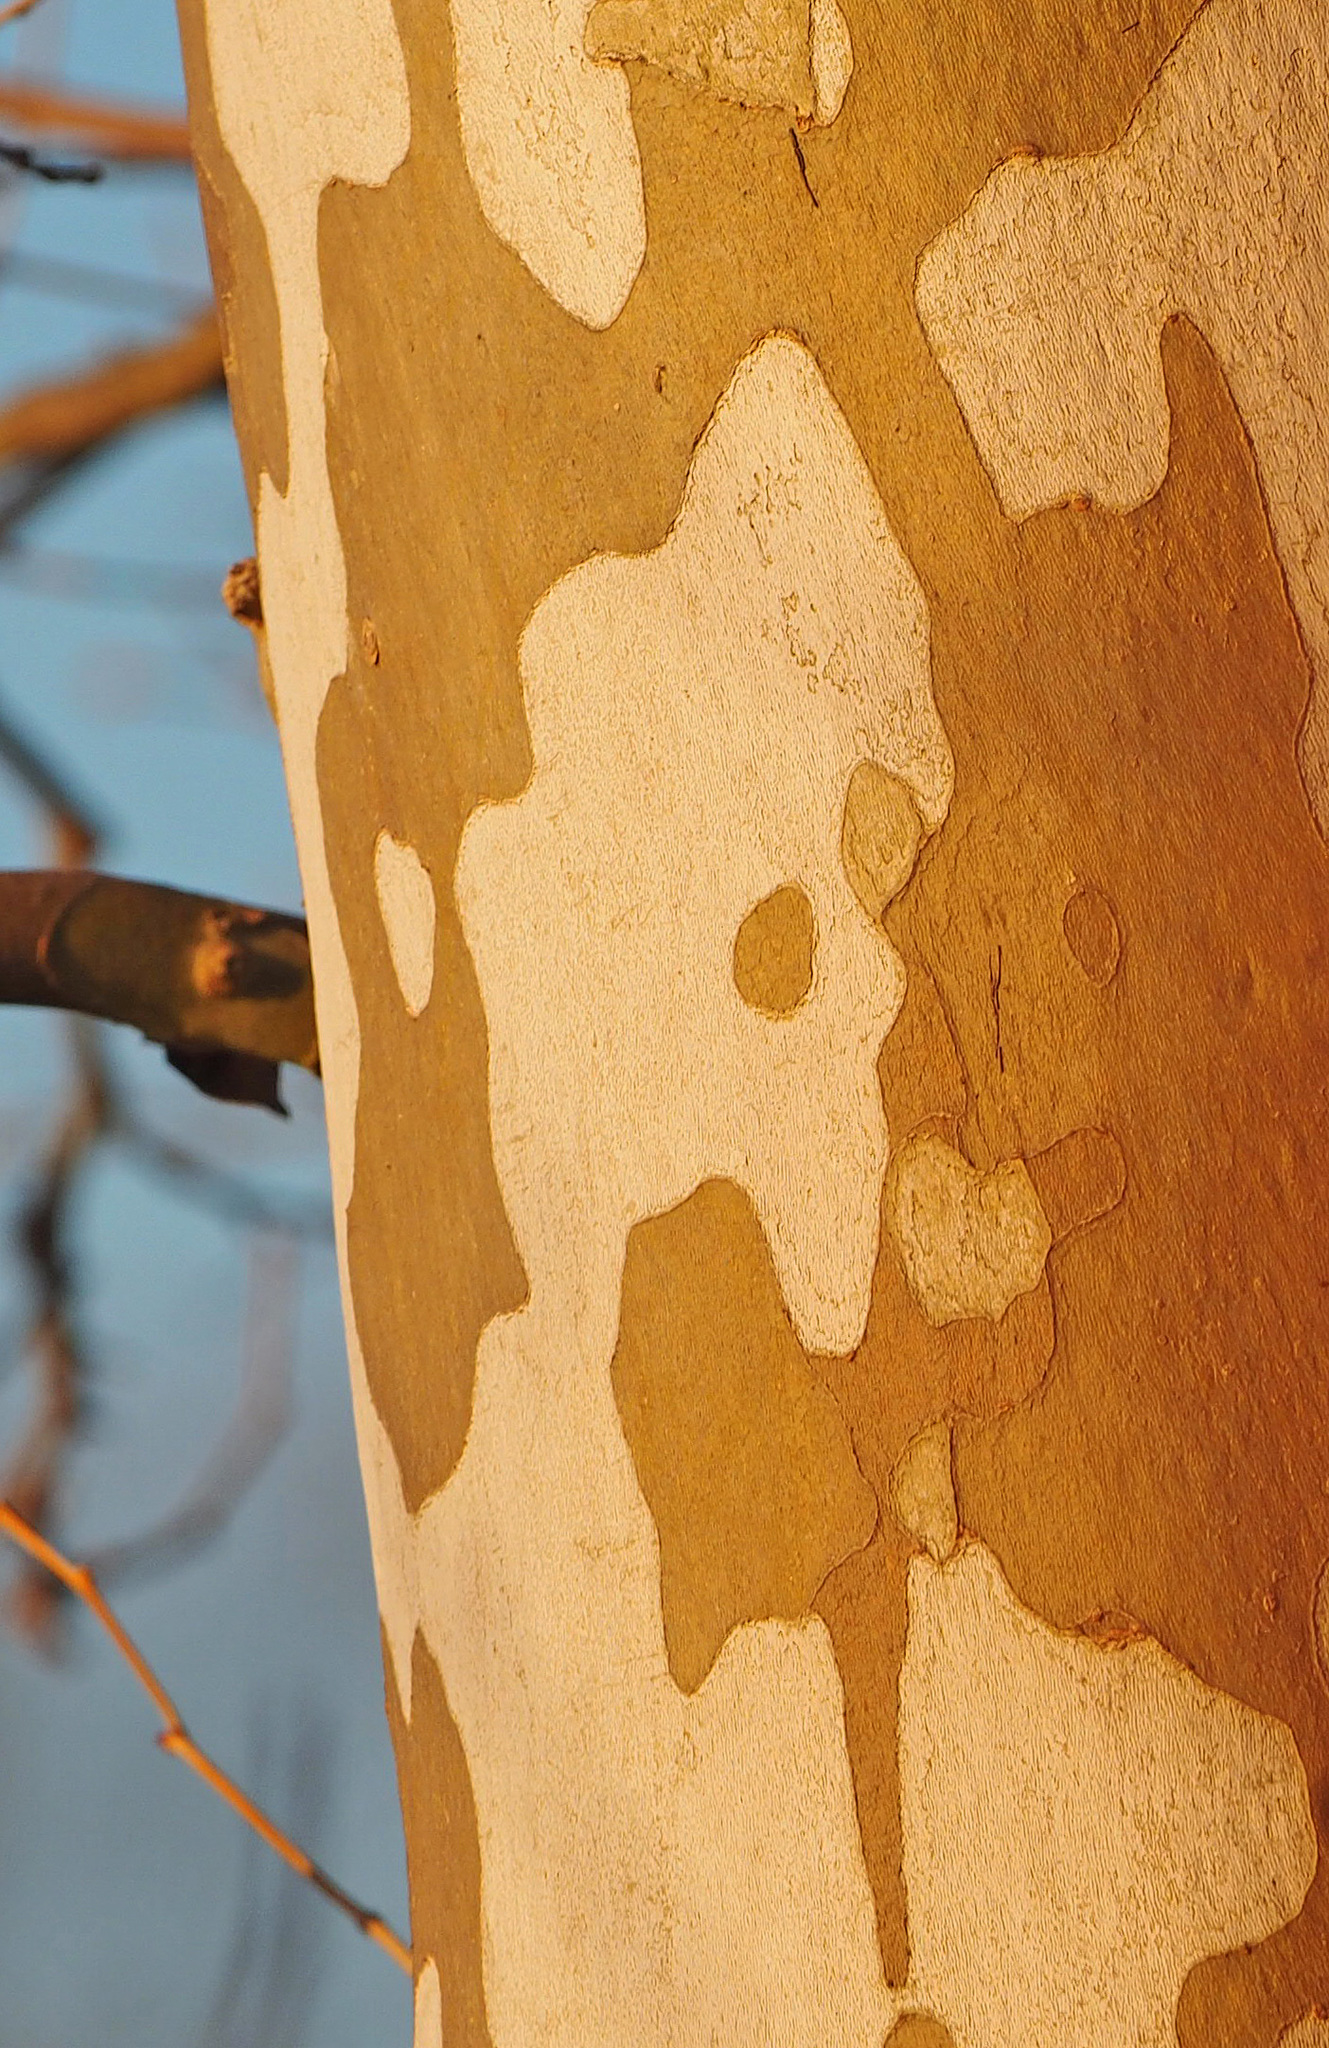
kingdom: Plantae
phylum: Tracheophyta
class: Magnoliopsida
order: Proteales
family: Platanaceae
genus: Platanus
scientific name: Platanus occidentalis
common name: American sycamore
